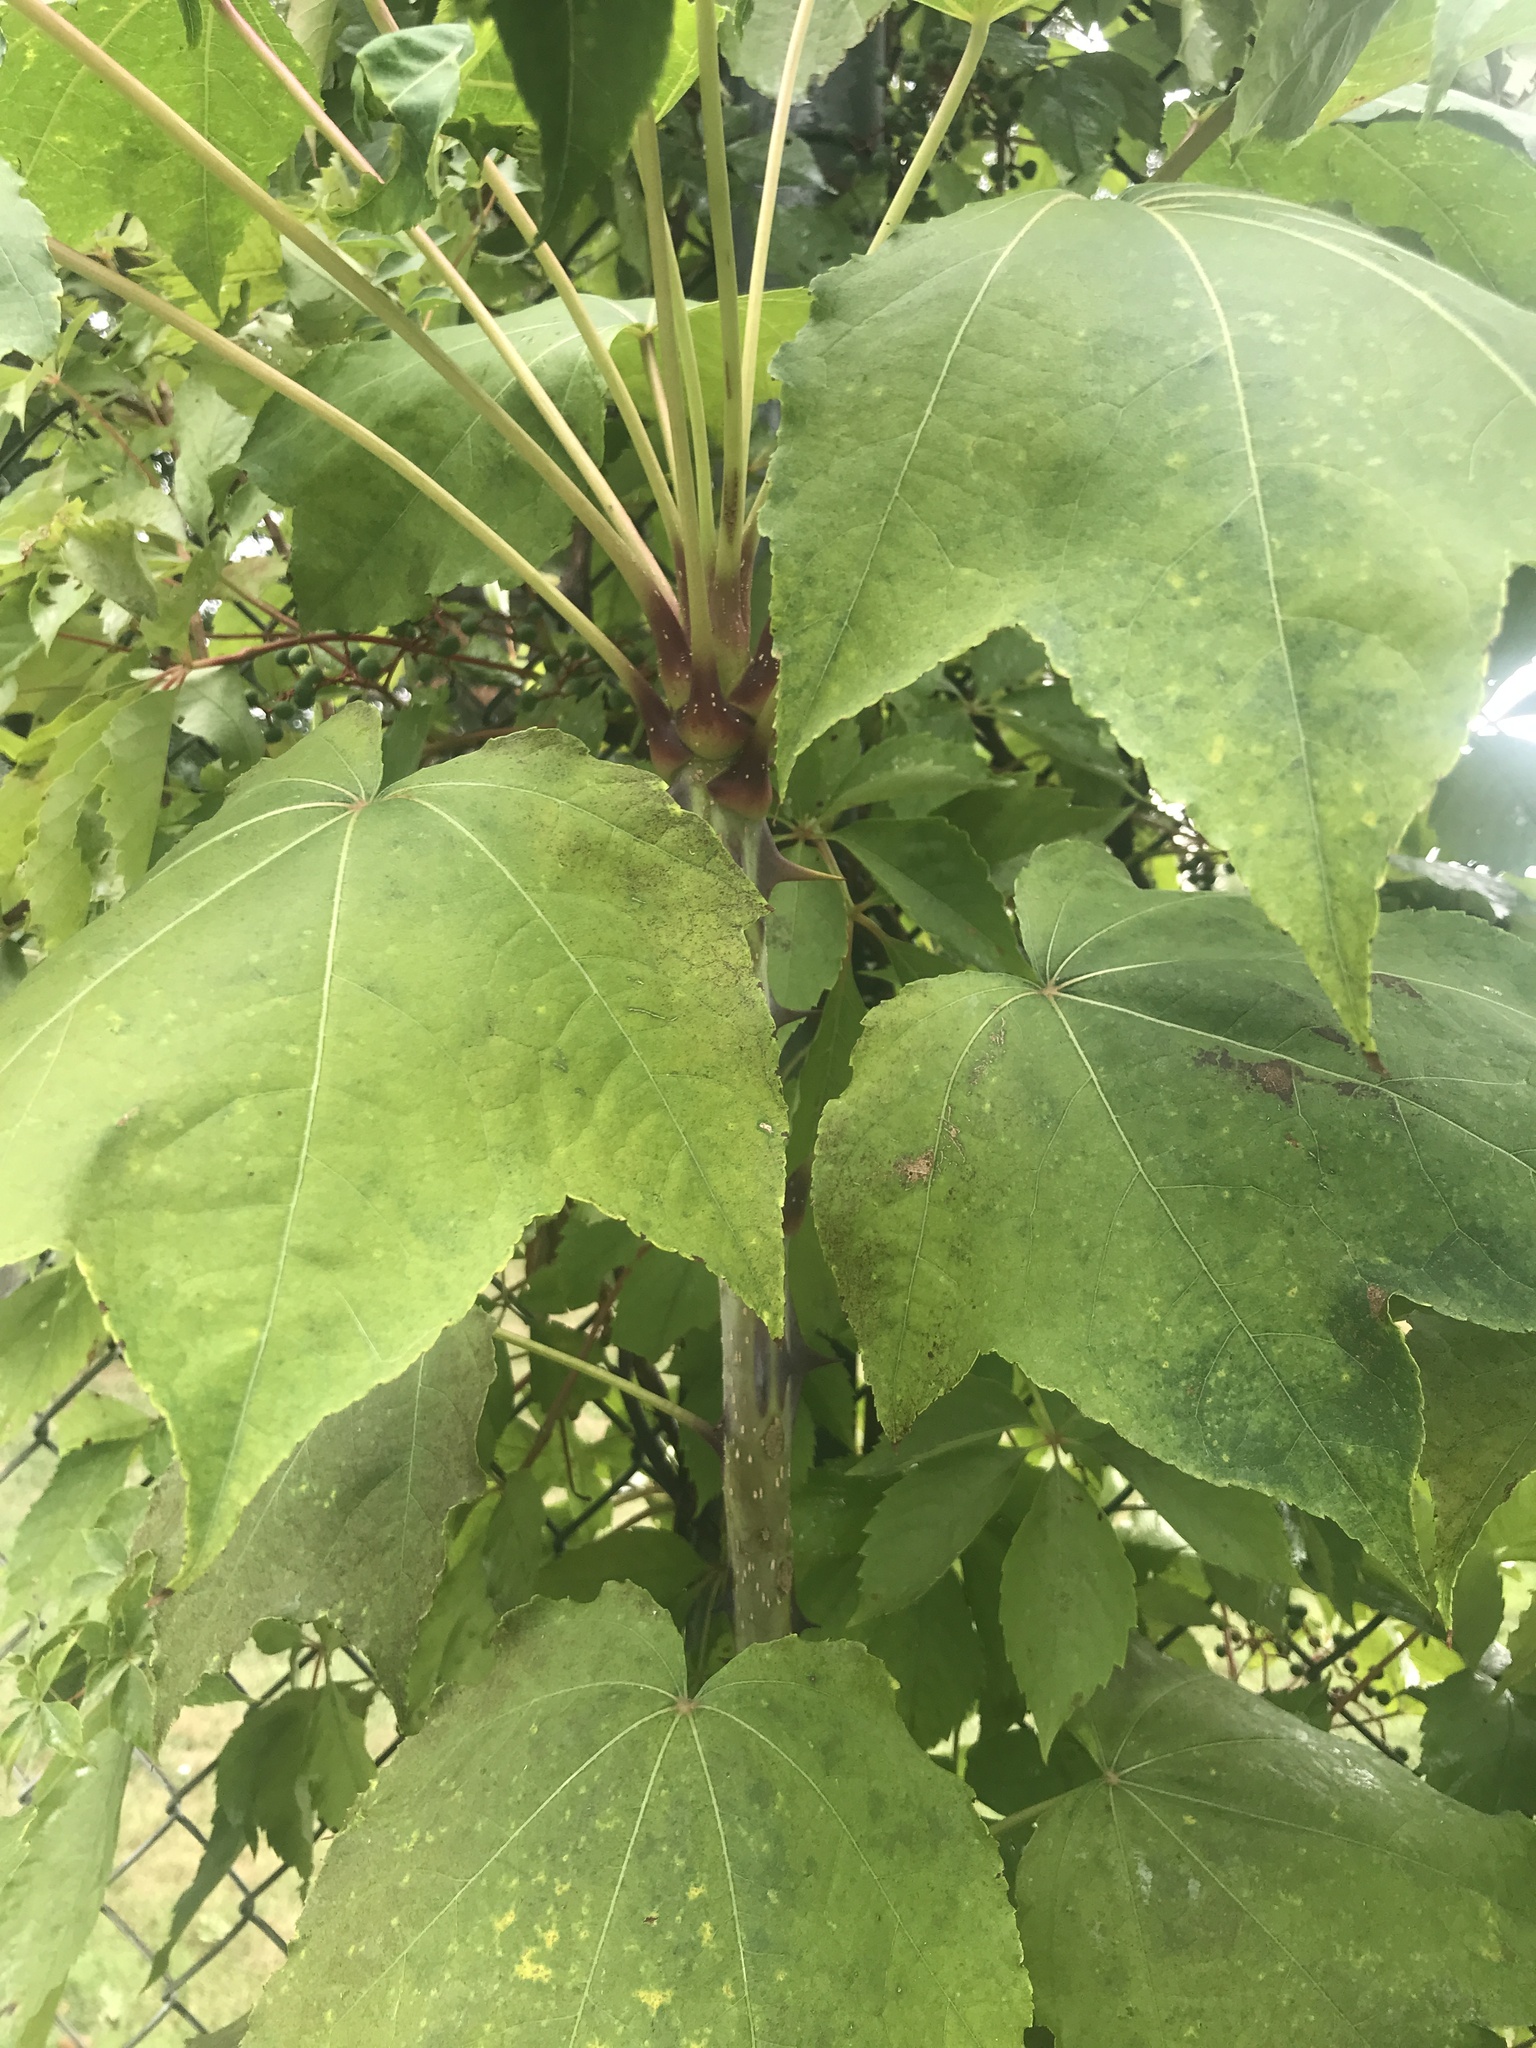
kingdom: Plantae
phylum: Tracheophyta
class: Magnoliopsida
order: Apiales
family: Araliaceae
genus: Kalopanax
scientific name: Kalopanax septemlobus
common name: Castor aralia
